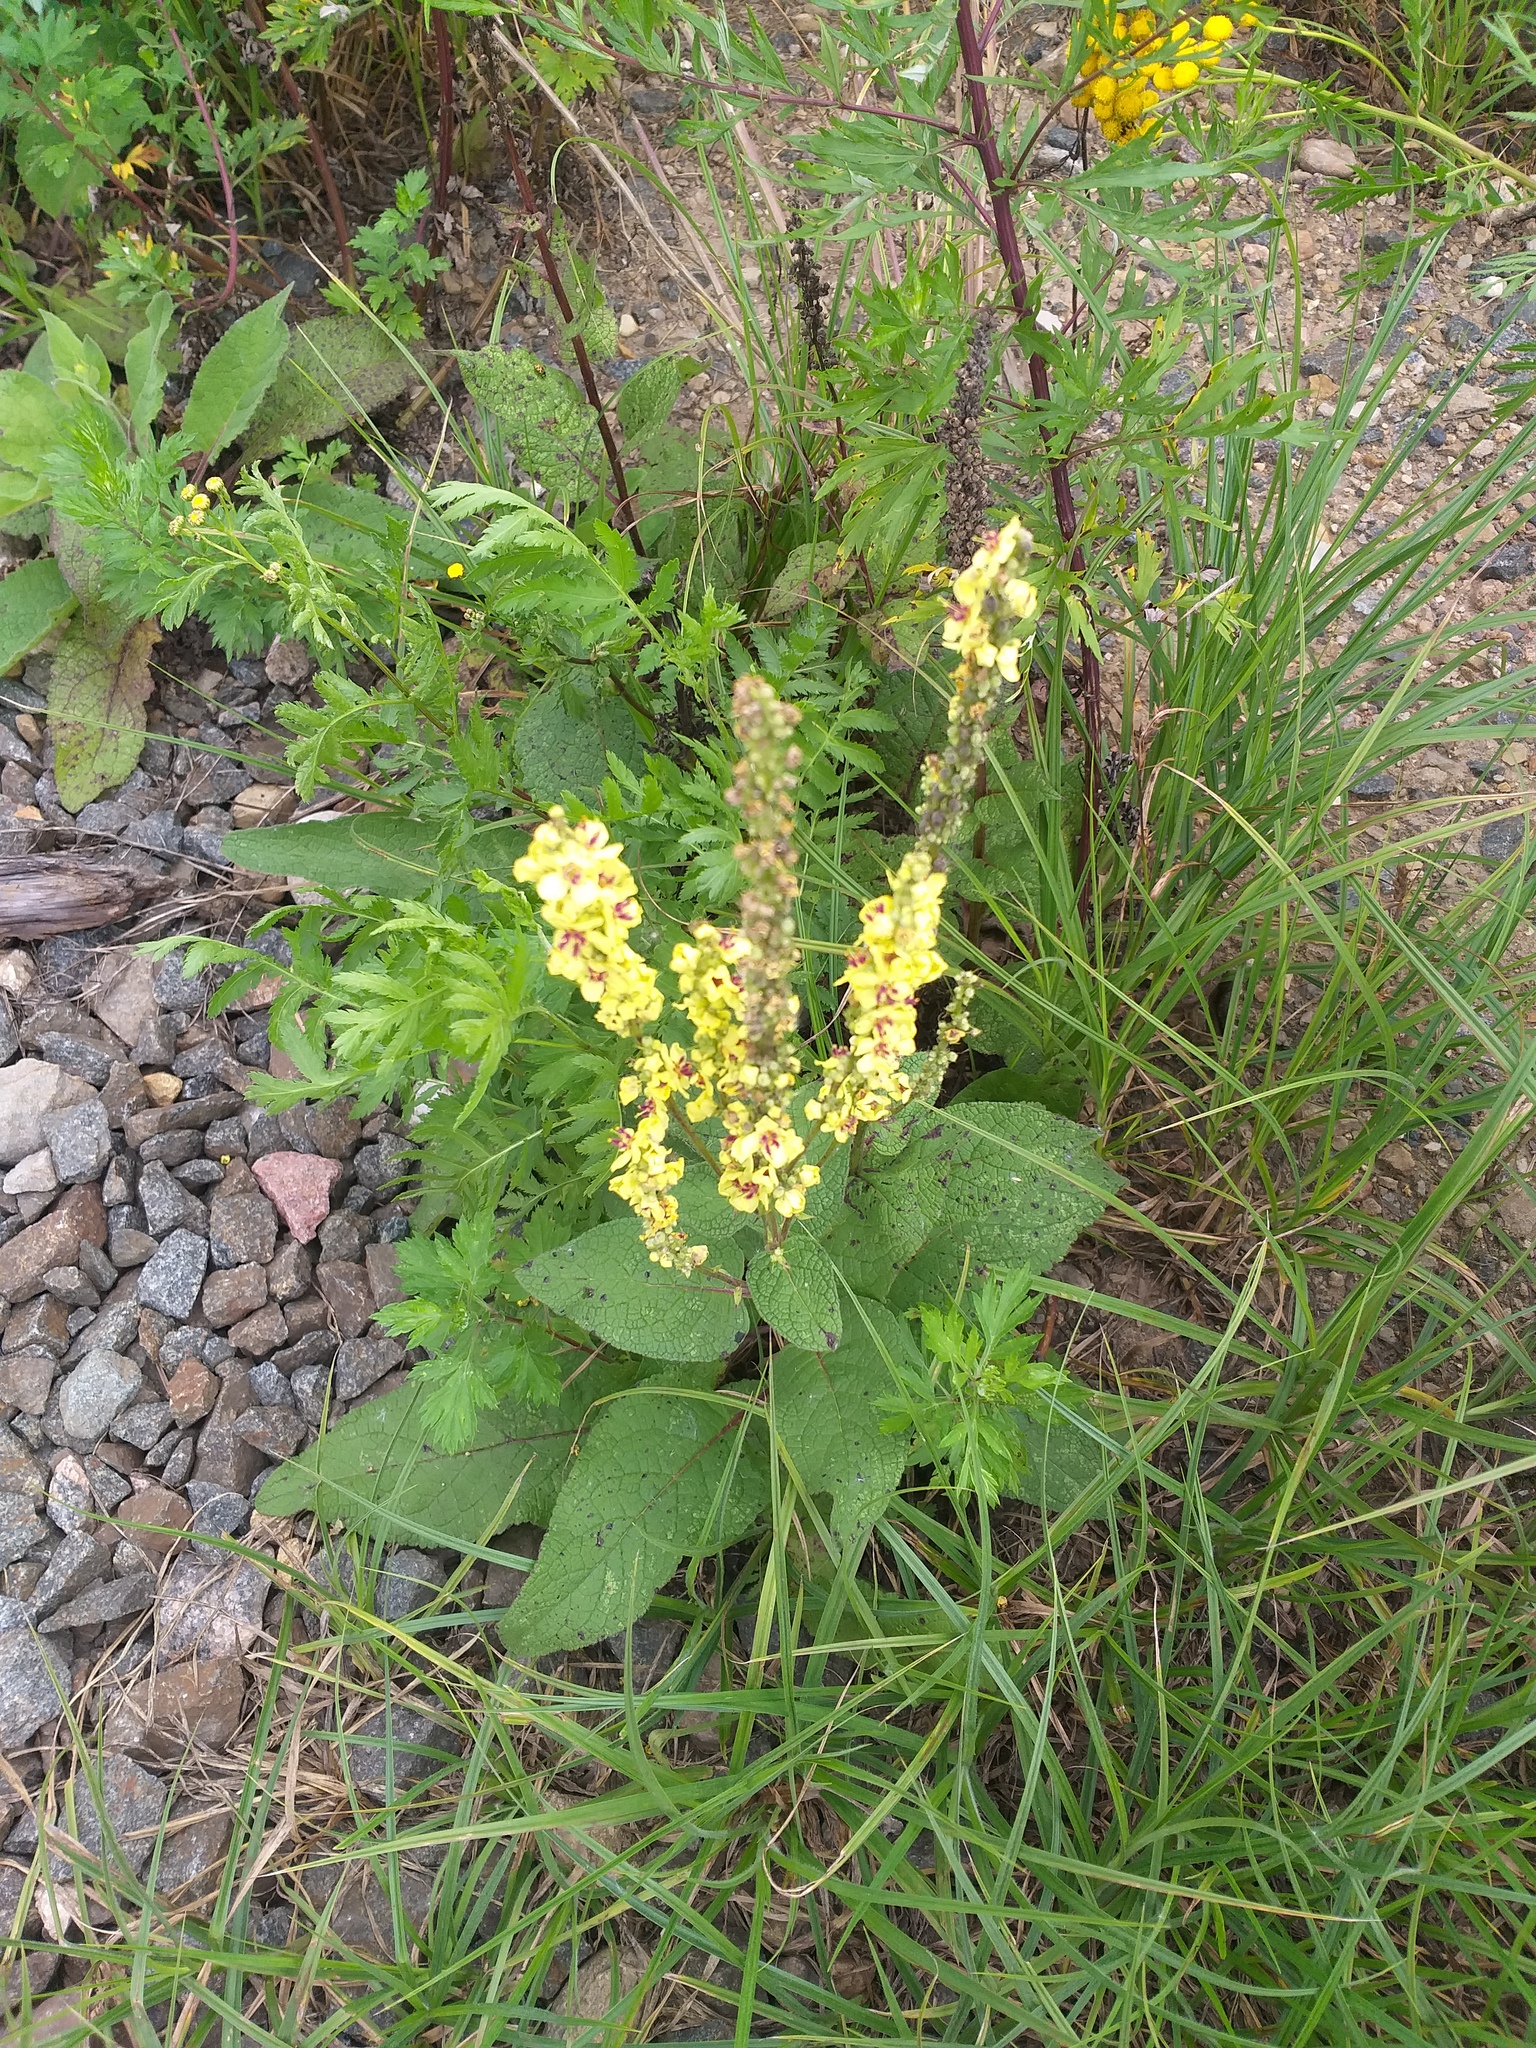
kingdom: Plantae
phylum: Tracheophyta
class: Magnoliopsida
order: Lamiales
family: Scrophulariaceae
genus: Verbascum
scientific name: Verbascum nigrum
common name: Dark mullein
